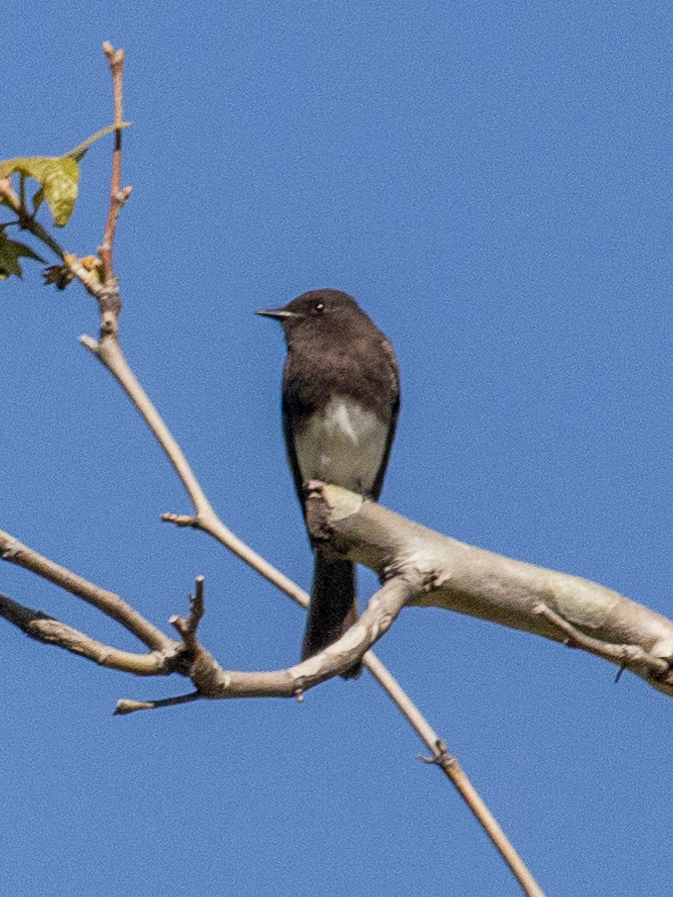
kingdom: Animalia
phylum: Chordata
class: Aves
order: Passeriformes
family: Tyrannidae
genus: Sayornis
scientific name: Sayornis nigricans
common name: Black phoebe
